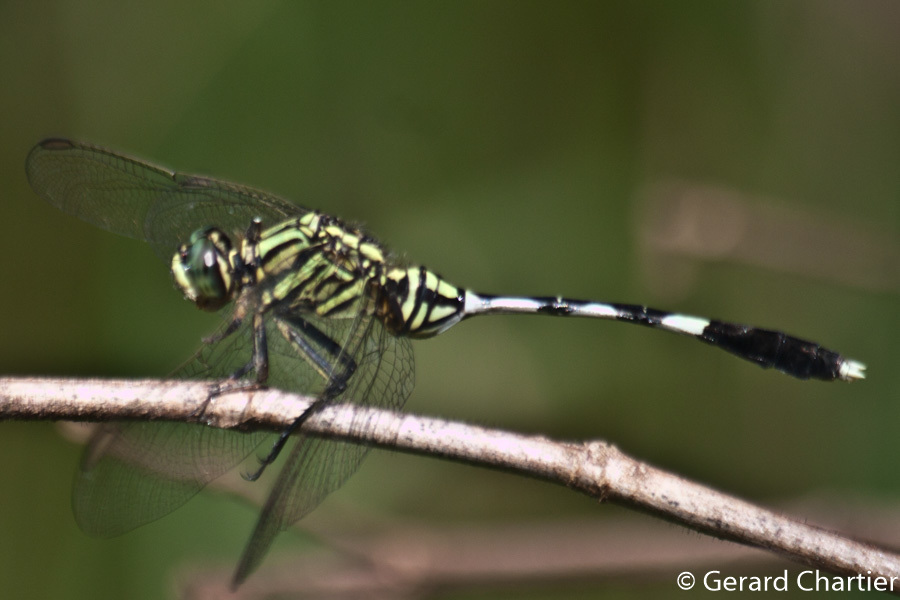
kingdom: Animalia
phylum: Arthropoda
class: Insecta
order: Odonata
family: Libellulidae
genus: Orthetrum
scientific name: Orthetrum sabina
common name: Slender skimmer
